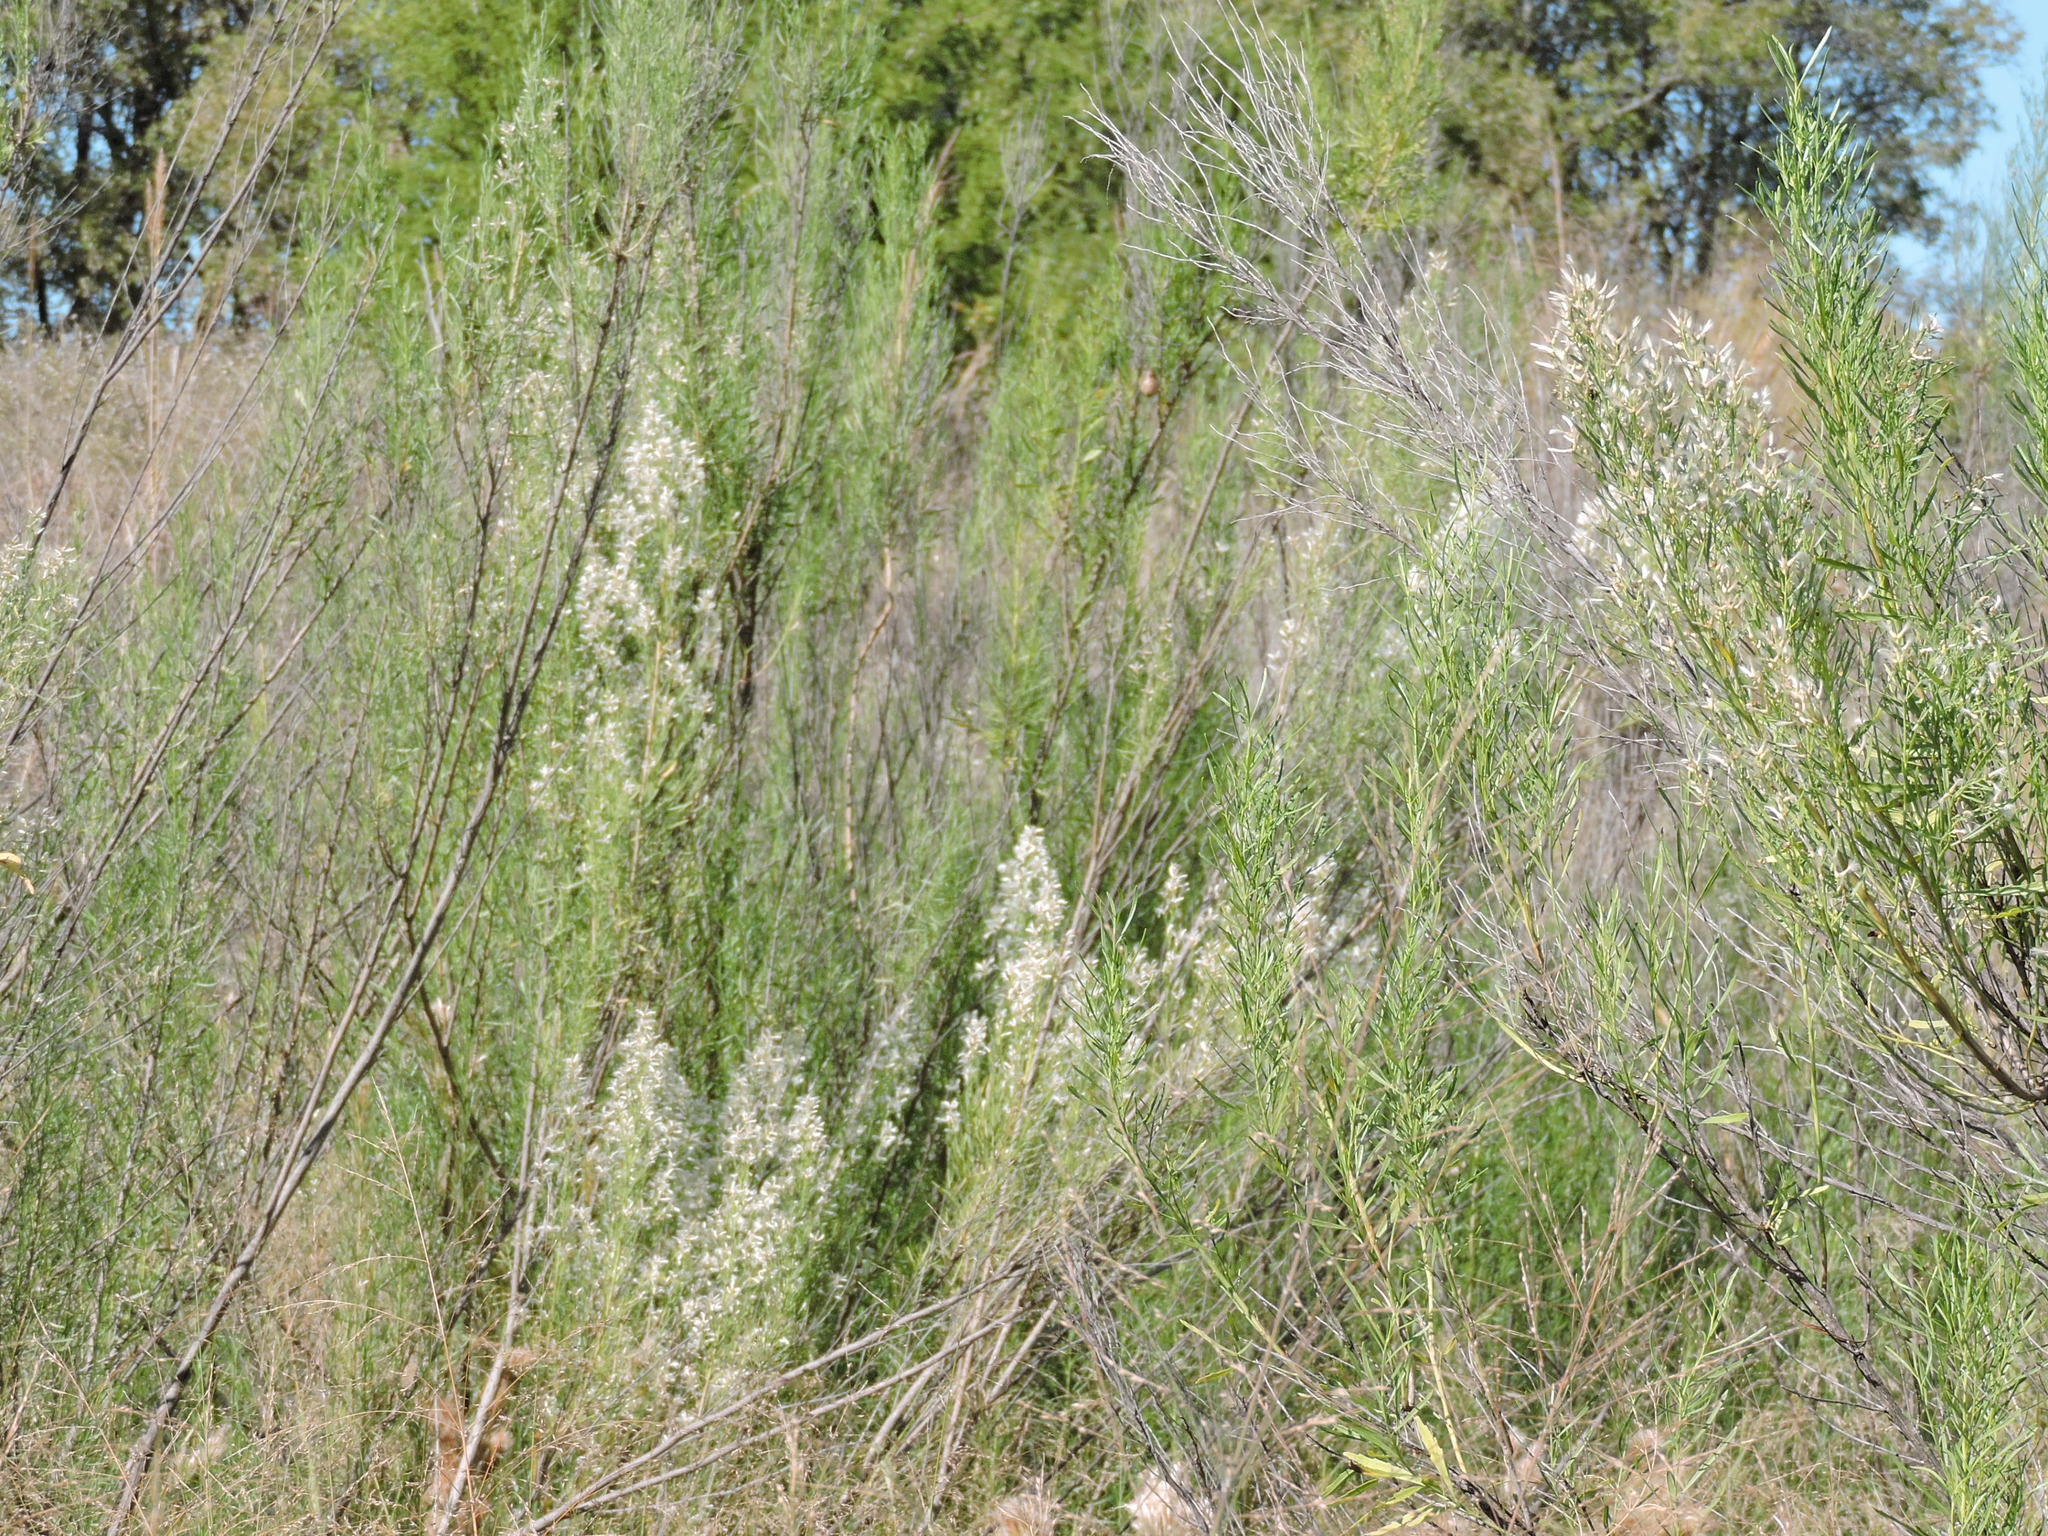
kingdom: Plantae
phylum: Tracheophyta
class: Magnoliopsida
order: Asterales
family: Asteraceae
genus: Baccharis
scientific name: Baccharis neglecta
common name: Roosevelt-weed
